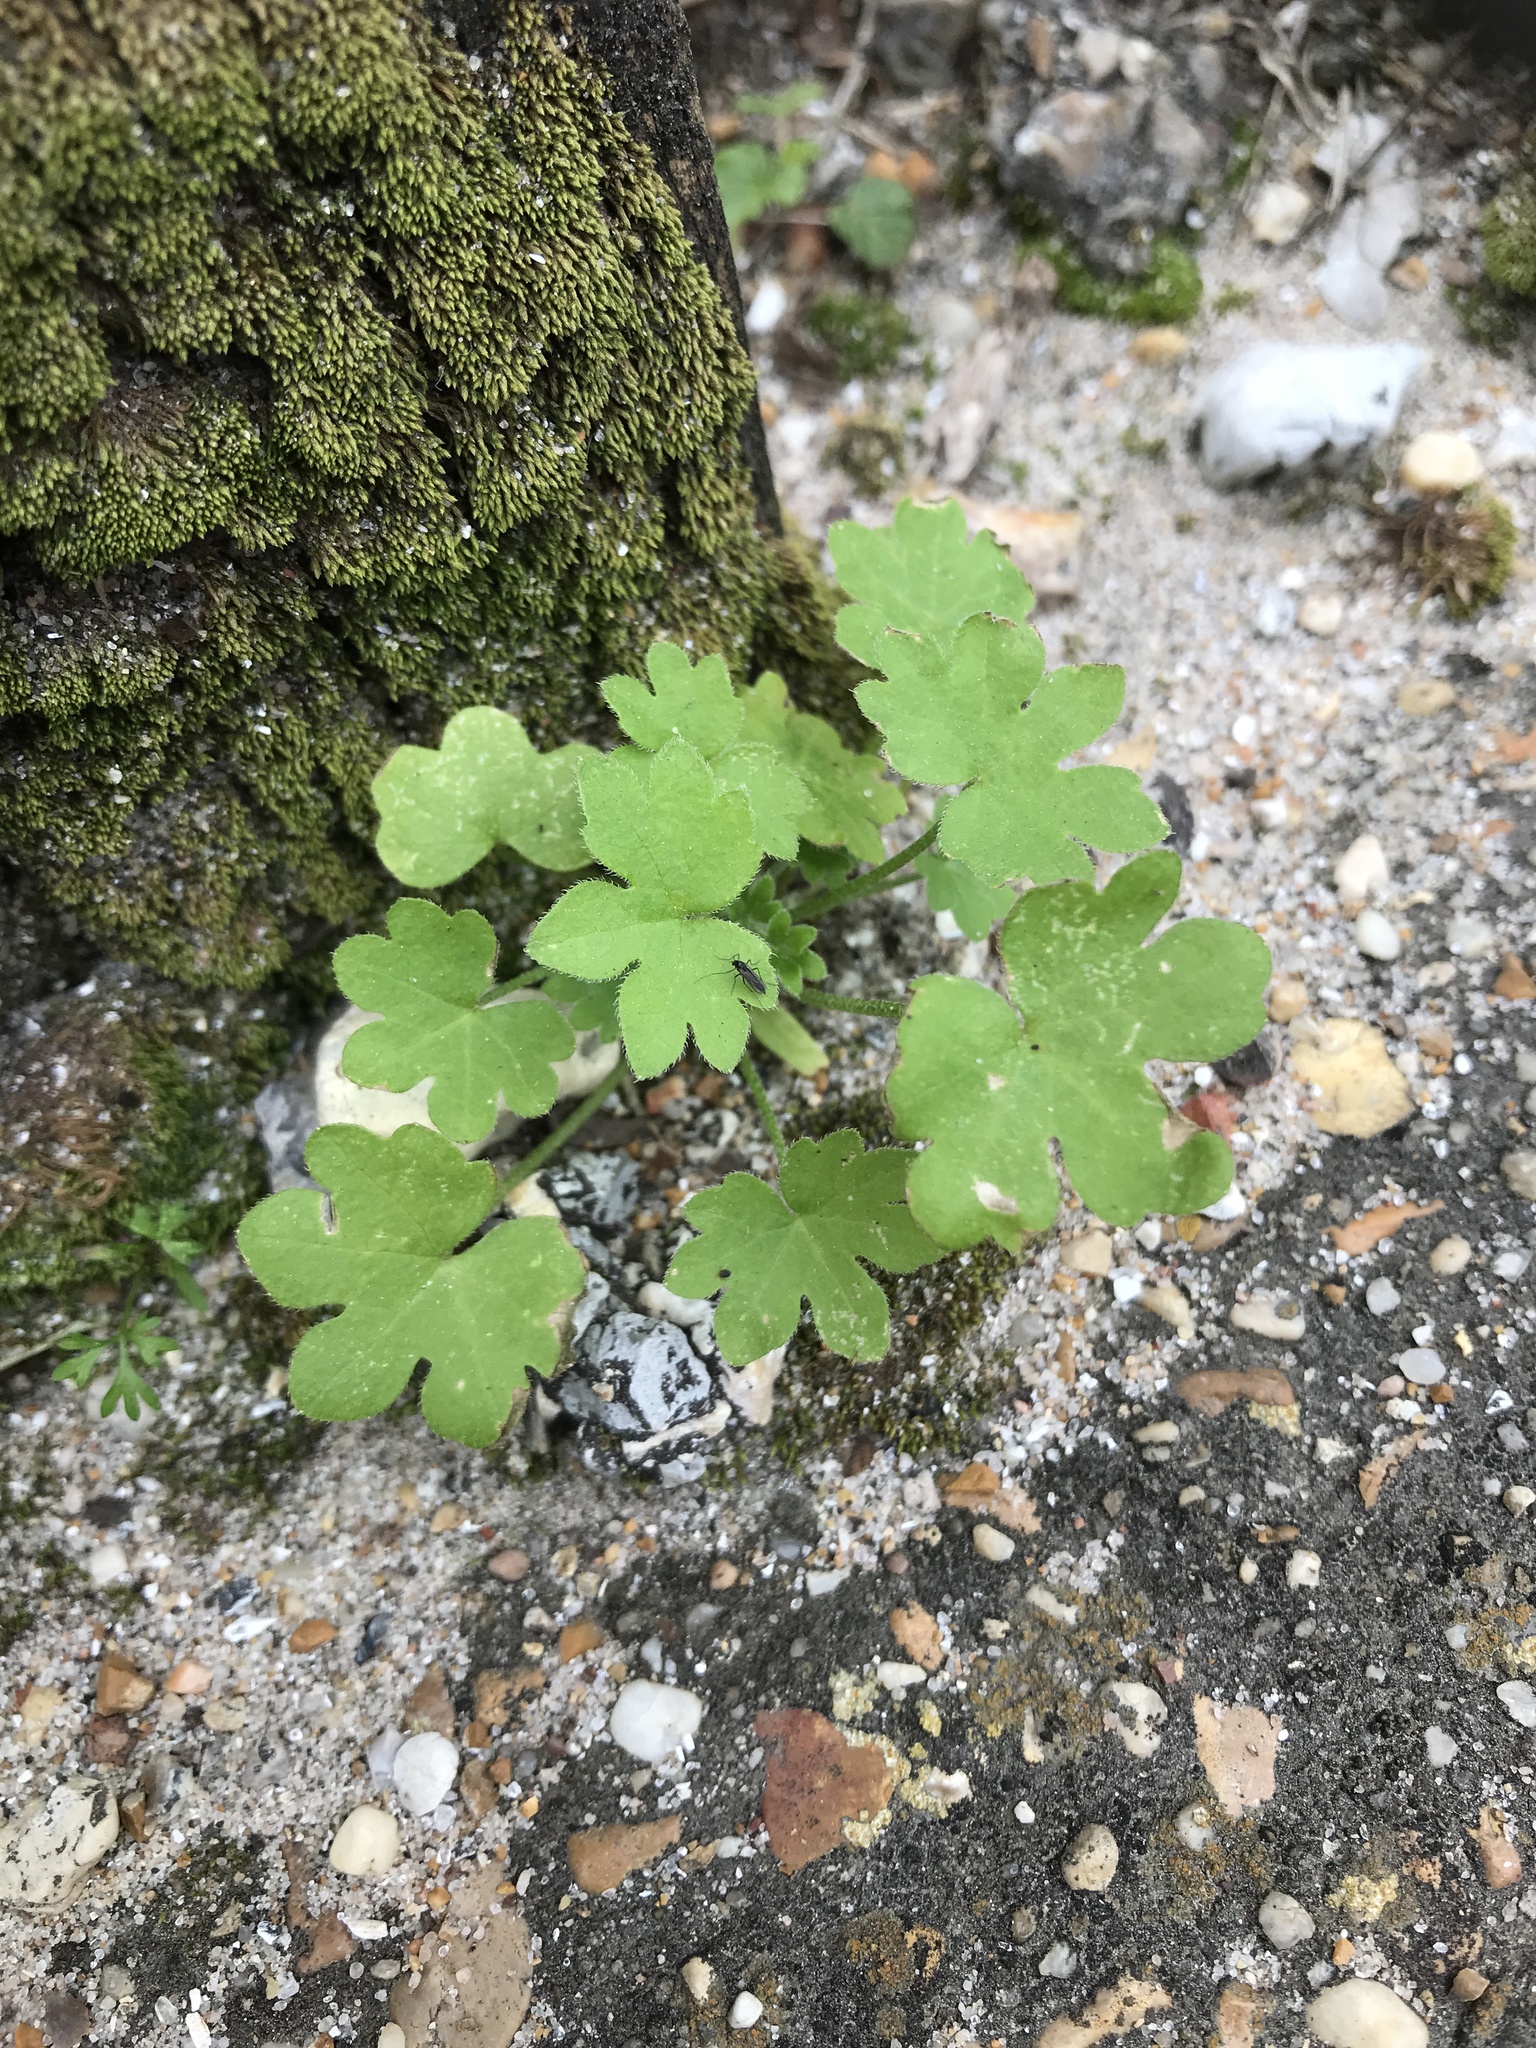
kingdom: Plantae
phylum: Tracheophyta
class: Magnoliopsida
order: Apiales
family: Apiaceae
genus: Bowlesia
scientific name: Bowlesia incana
